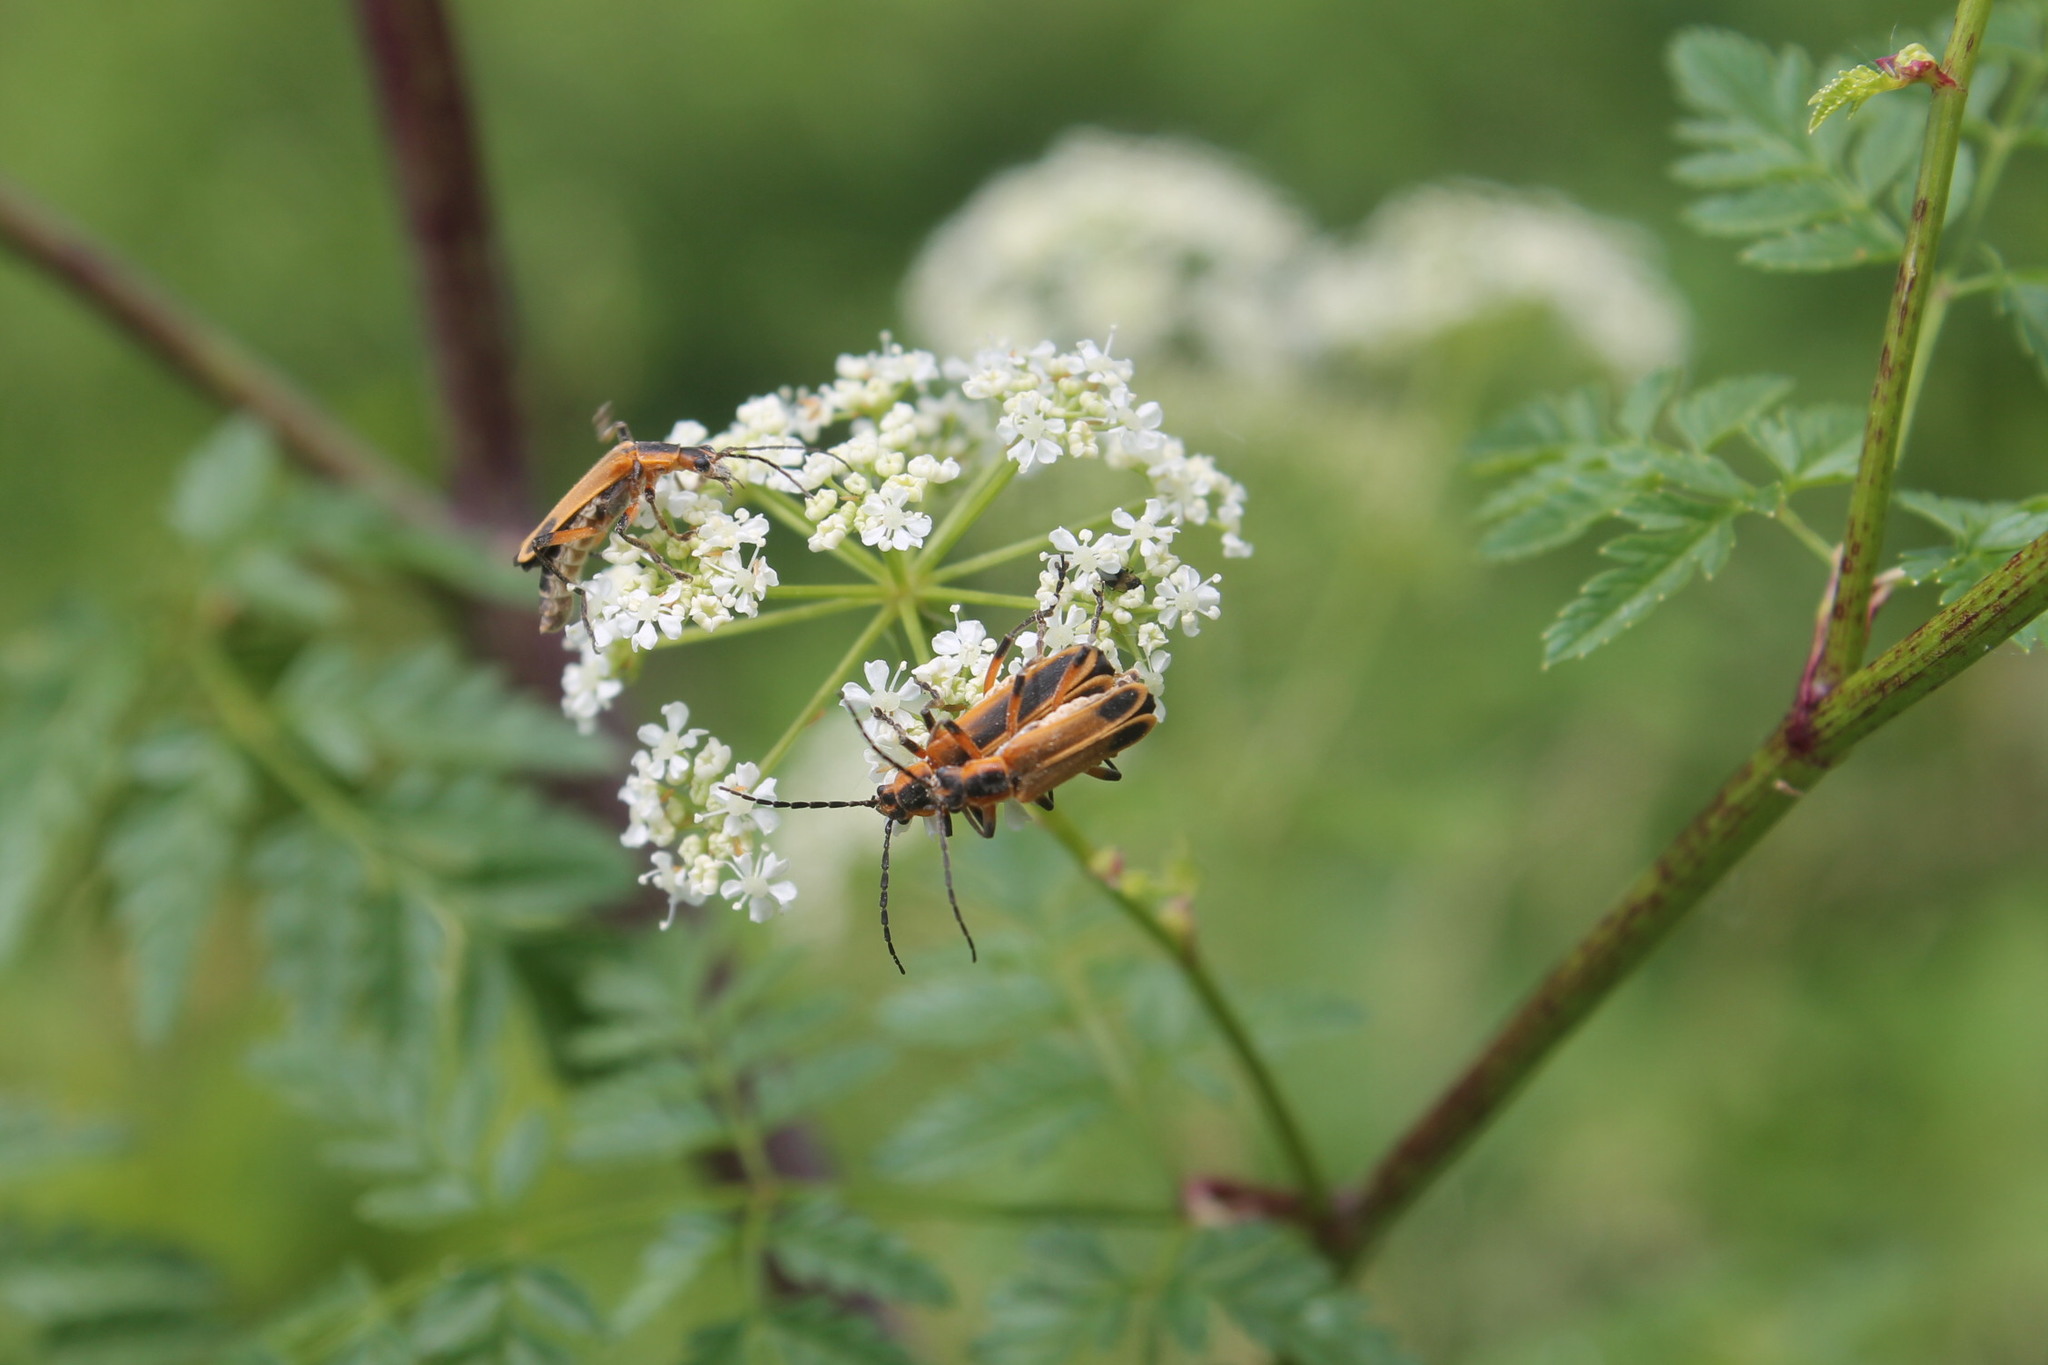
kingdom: Animalia
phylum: Arthropoda
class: Insecta
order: Coleoptera
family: Cantharidae
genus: Chauliognathus
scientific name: Chauliognathus marginatus
